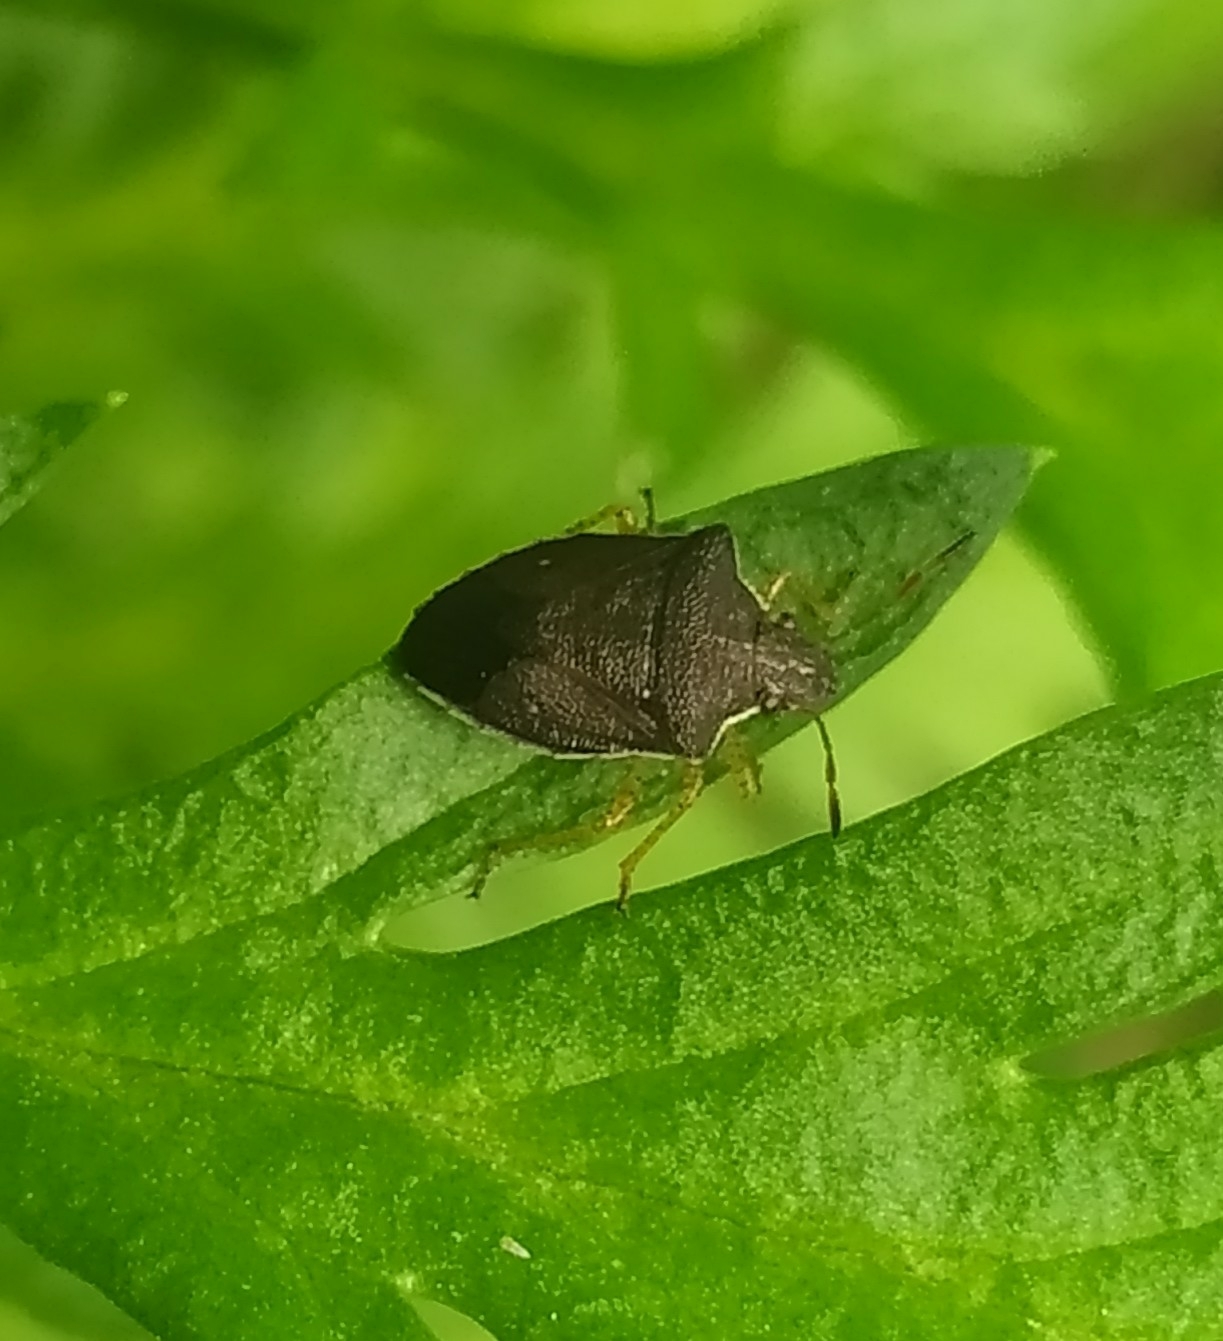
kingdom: Animalia
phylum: Arthropoda
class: Insecta
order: Hemiptera
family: Pentatomidae
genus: Mormidea
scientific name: Mormidea
